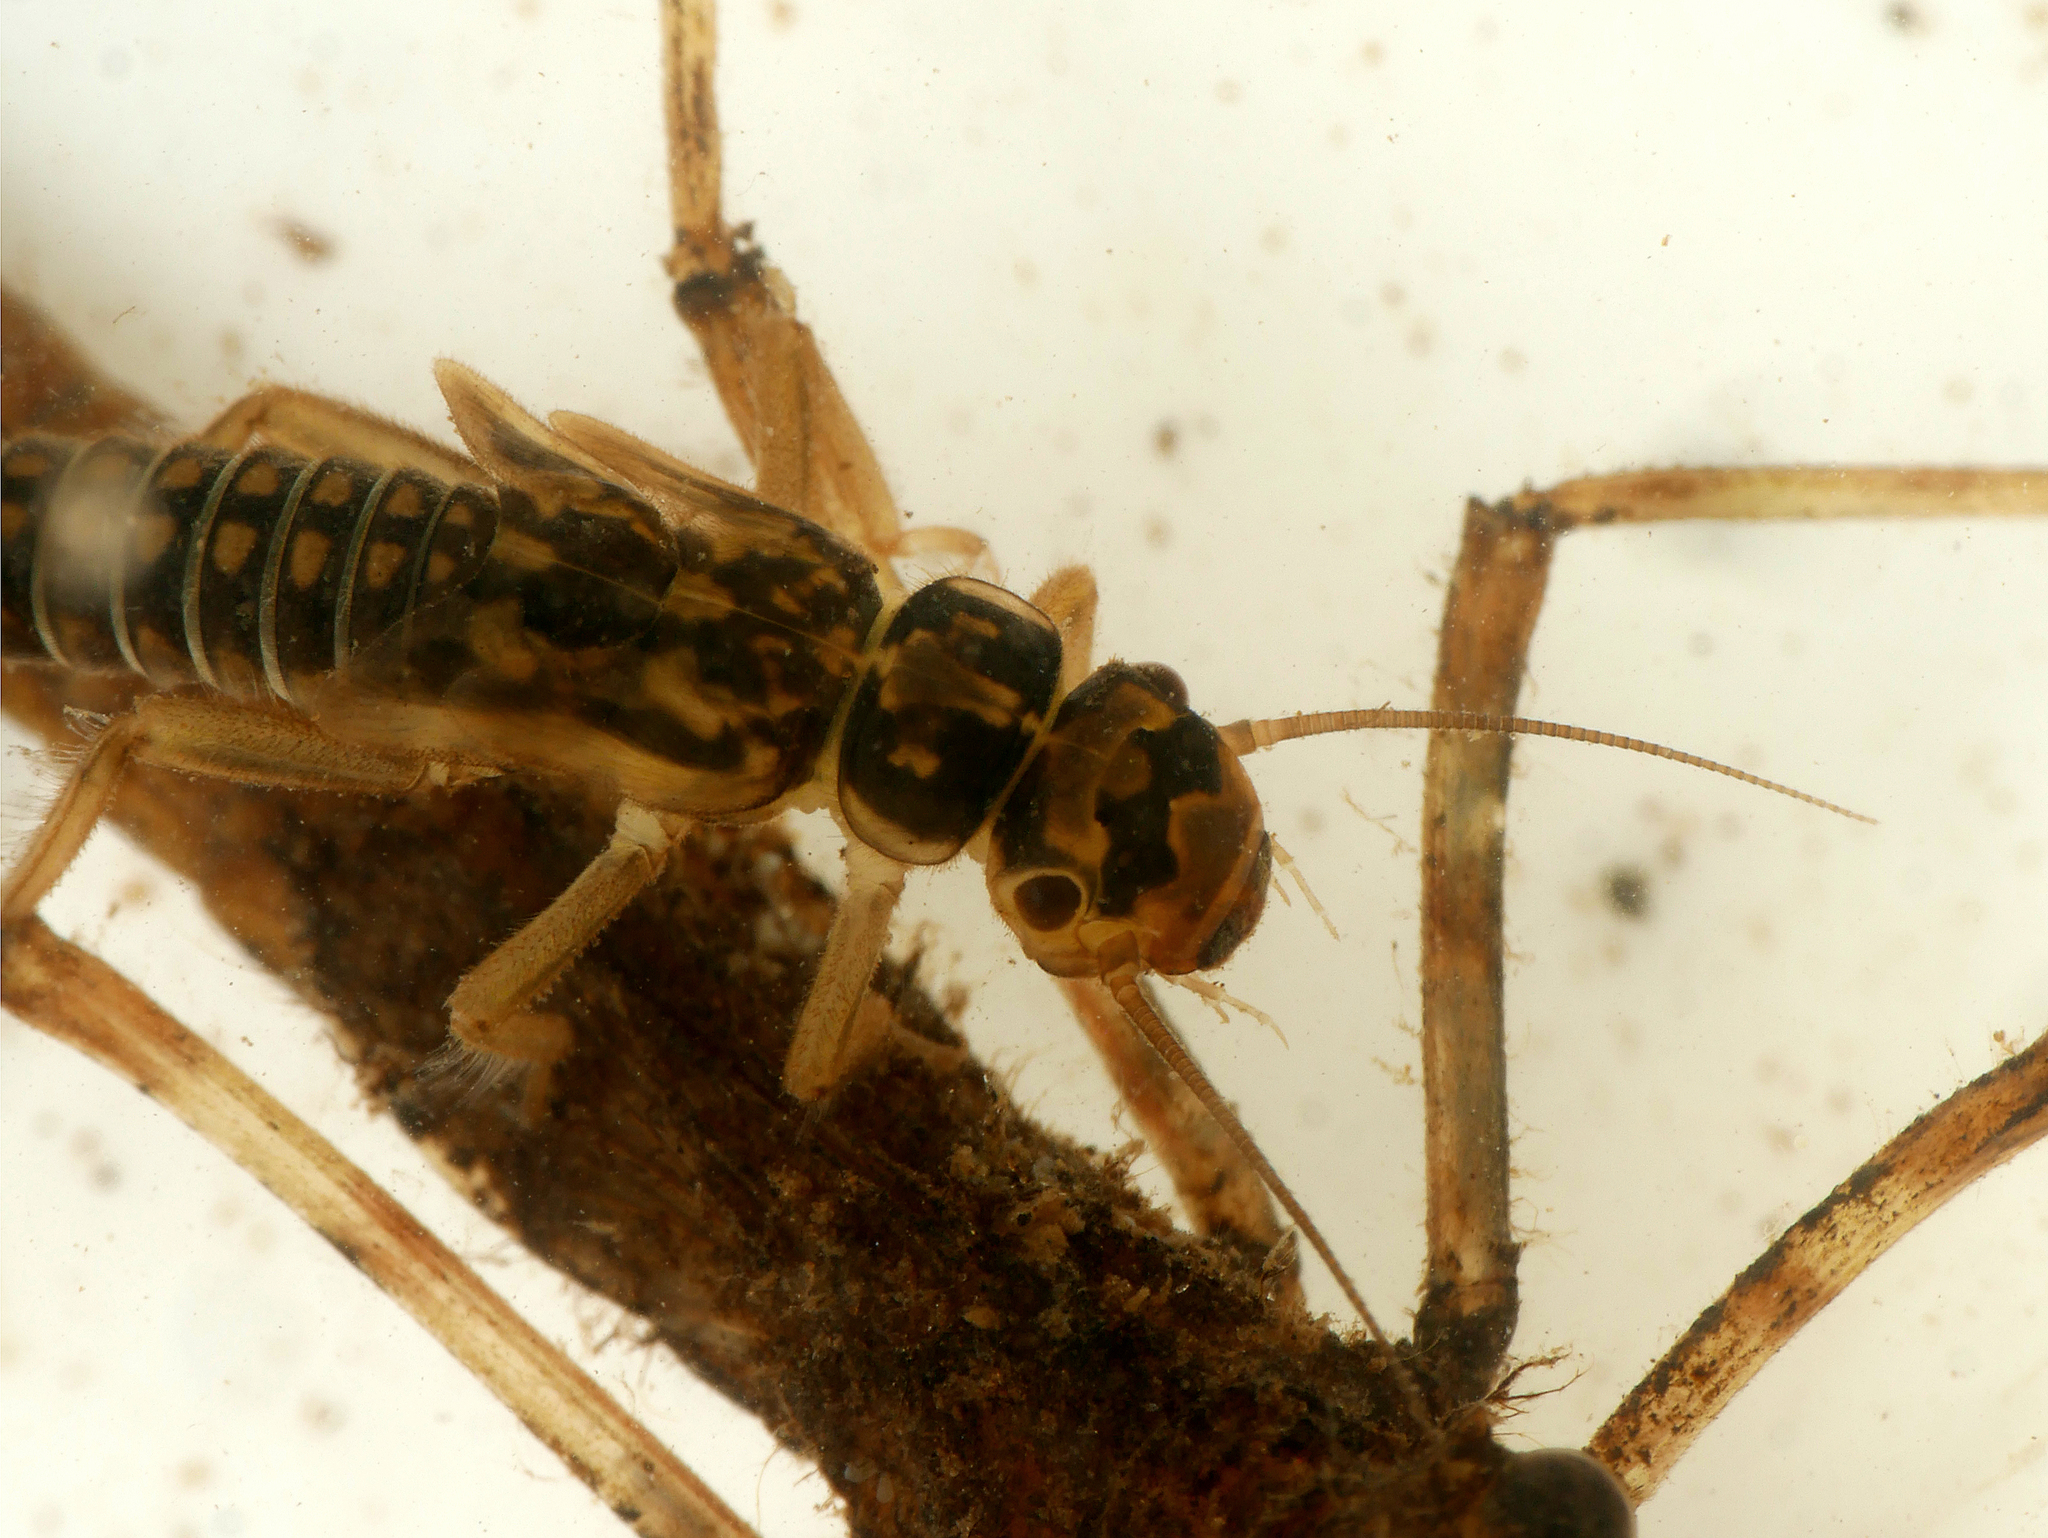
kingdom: Animalia
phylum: Arthropoda
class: Insecta
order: Plecoptera
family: Perlodidae
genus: Isoperla
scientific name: Isoperla difformis
